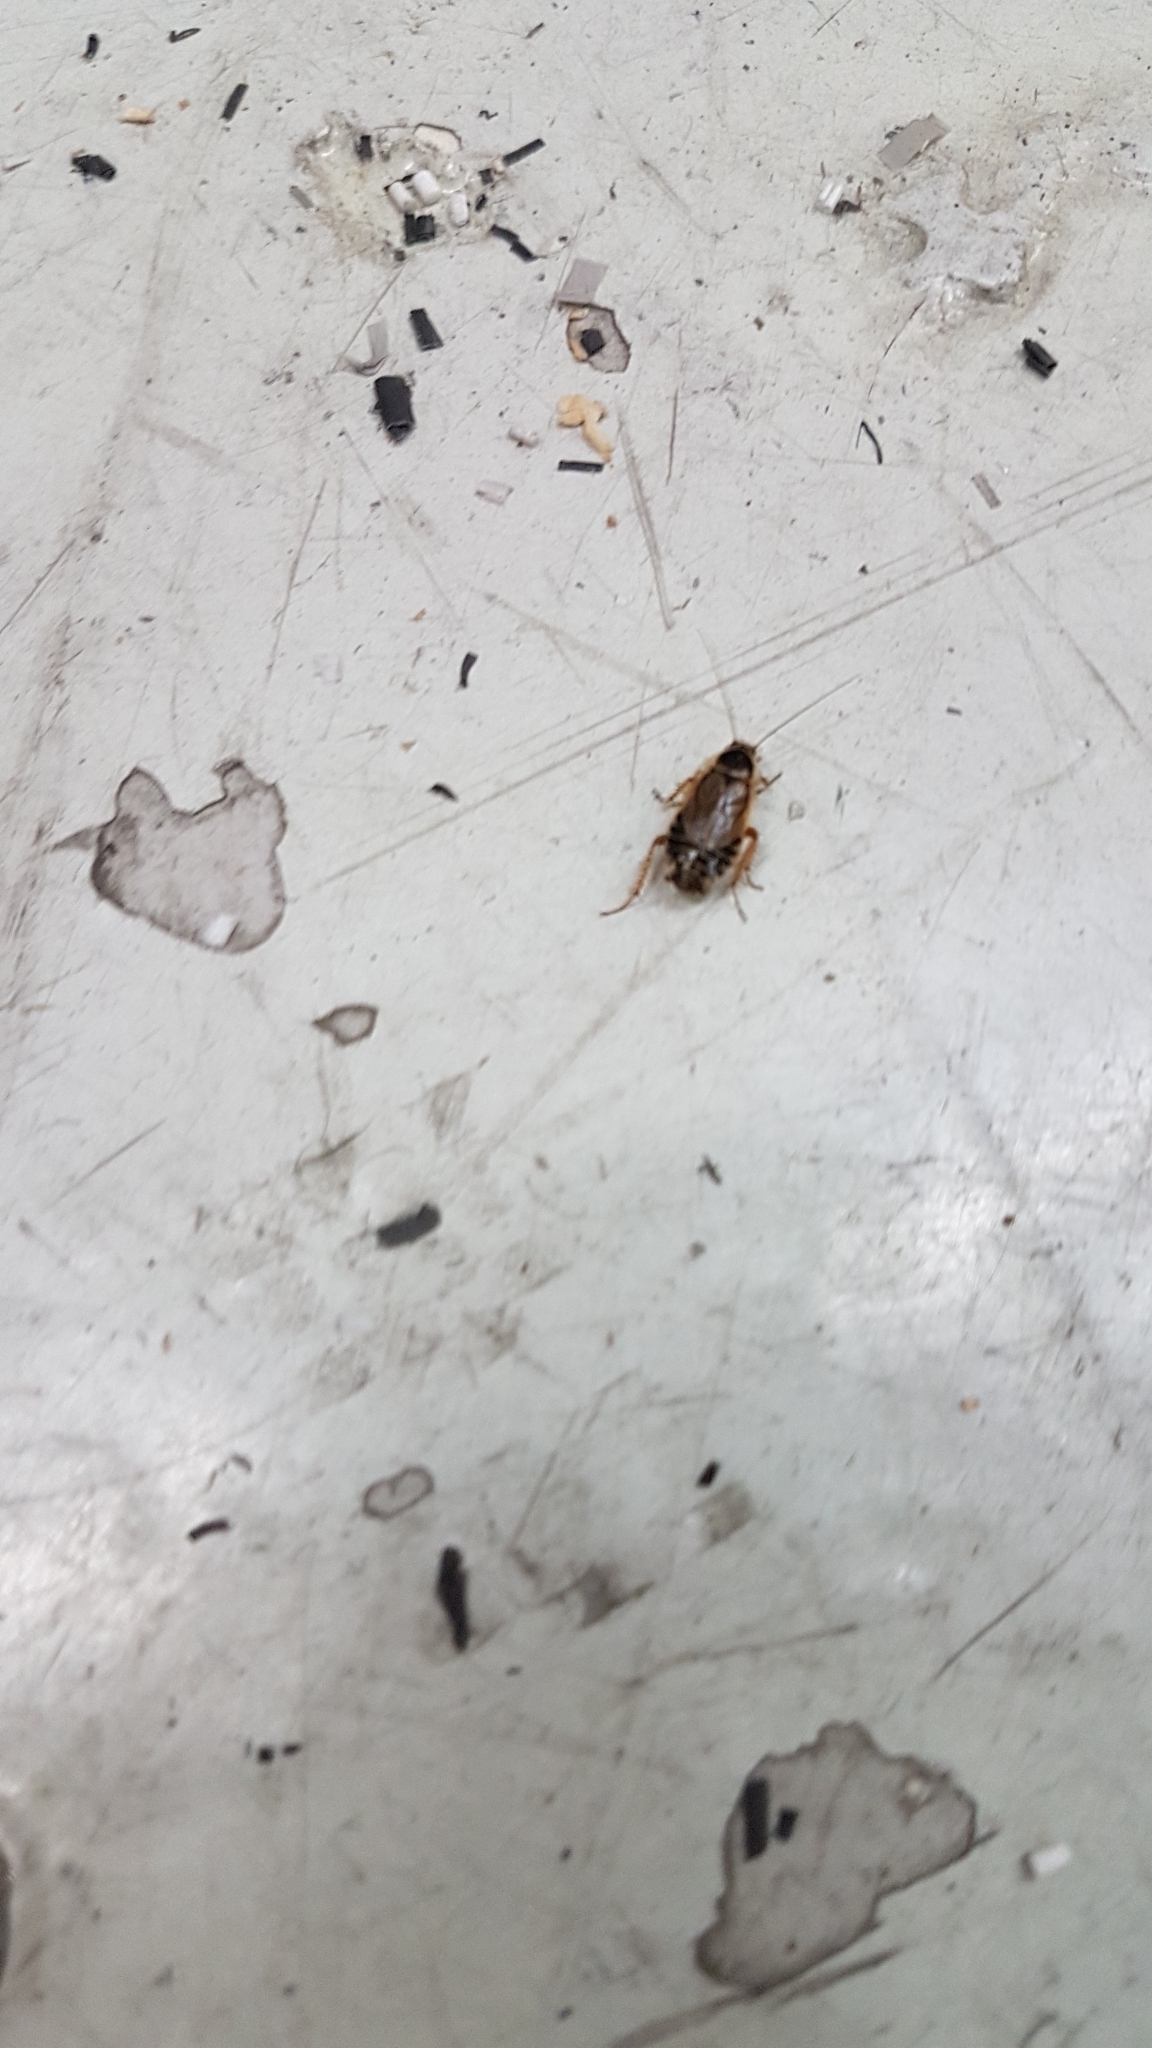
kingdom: Animalia
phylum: Arthropoda
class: Insecta
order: Blattodea
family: Ectobiidae
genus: Ectobius
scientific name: Ectobius sylvestris
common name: Forest cockroach
